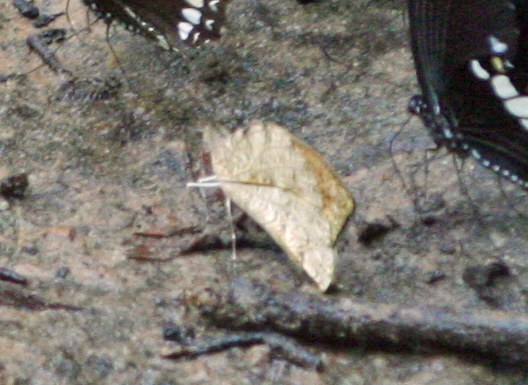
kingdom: Animalia
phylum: Arthropoda
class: Insecta
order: Lepidoptera
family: Pieridae
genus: Hebomoia
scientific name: Hebomoia glaucippe
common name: Great orange tip
